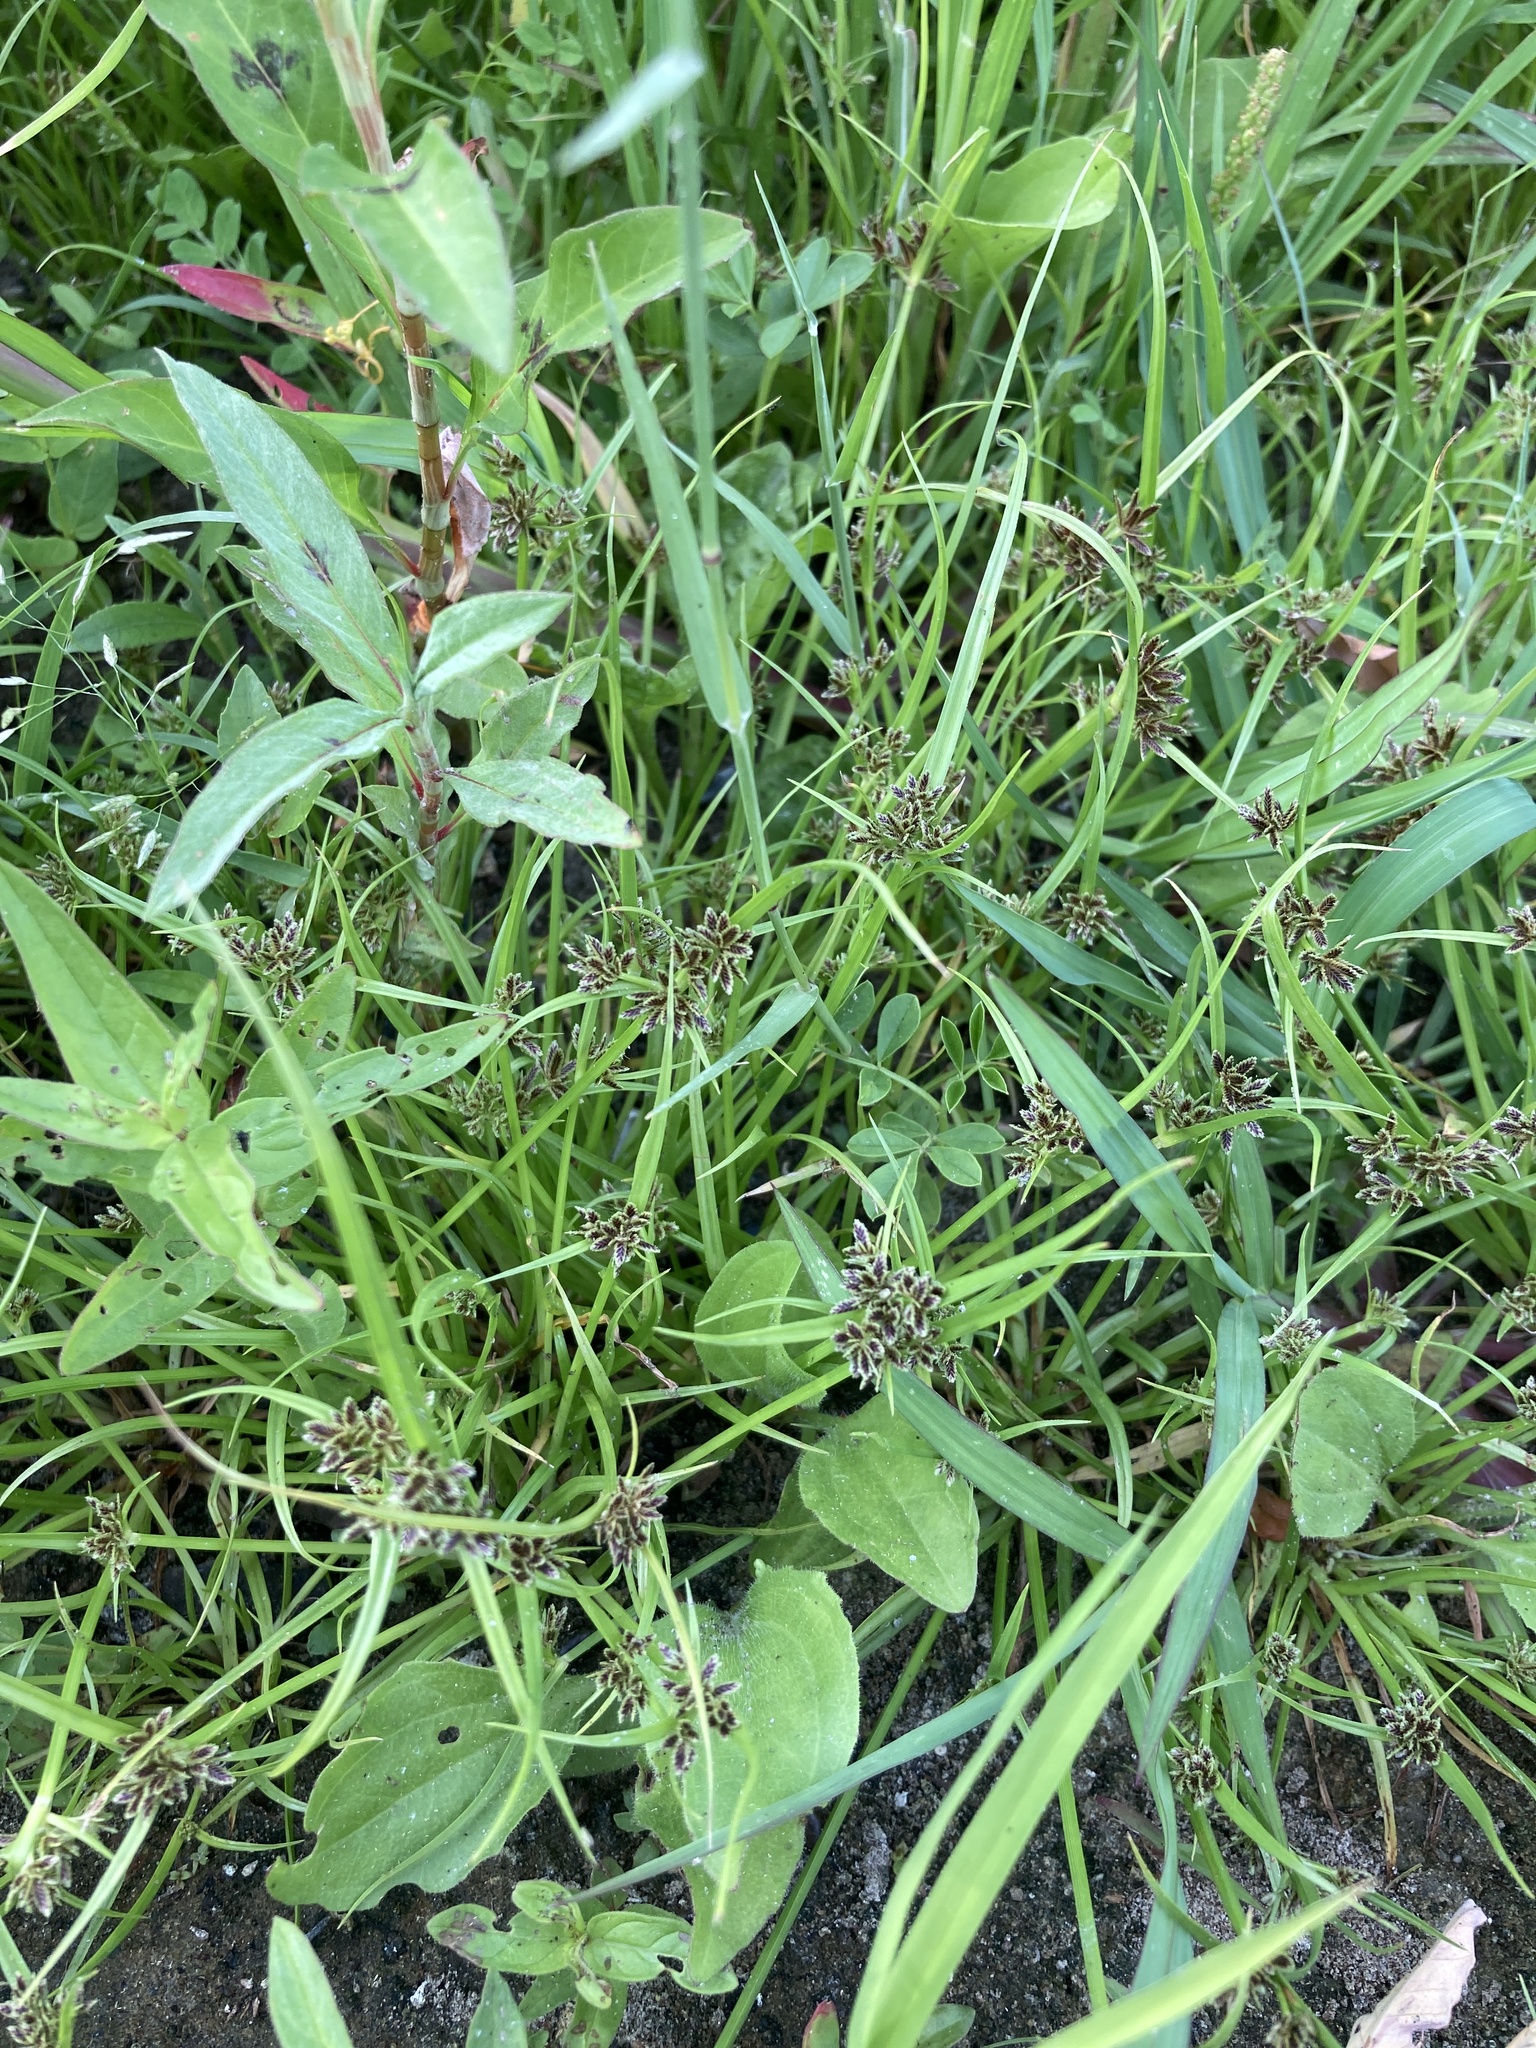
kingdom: Plantae
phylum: Tracheophyta
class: Liliopsida
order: Poales
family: Cyperaceae
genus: Cyperus
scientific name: Cyperus fuscus
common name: Brown galingale
